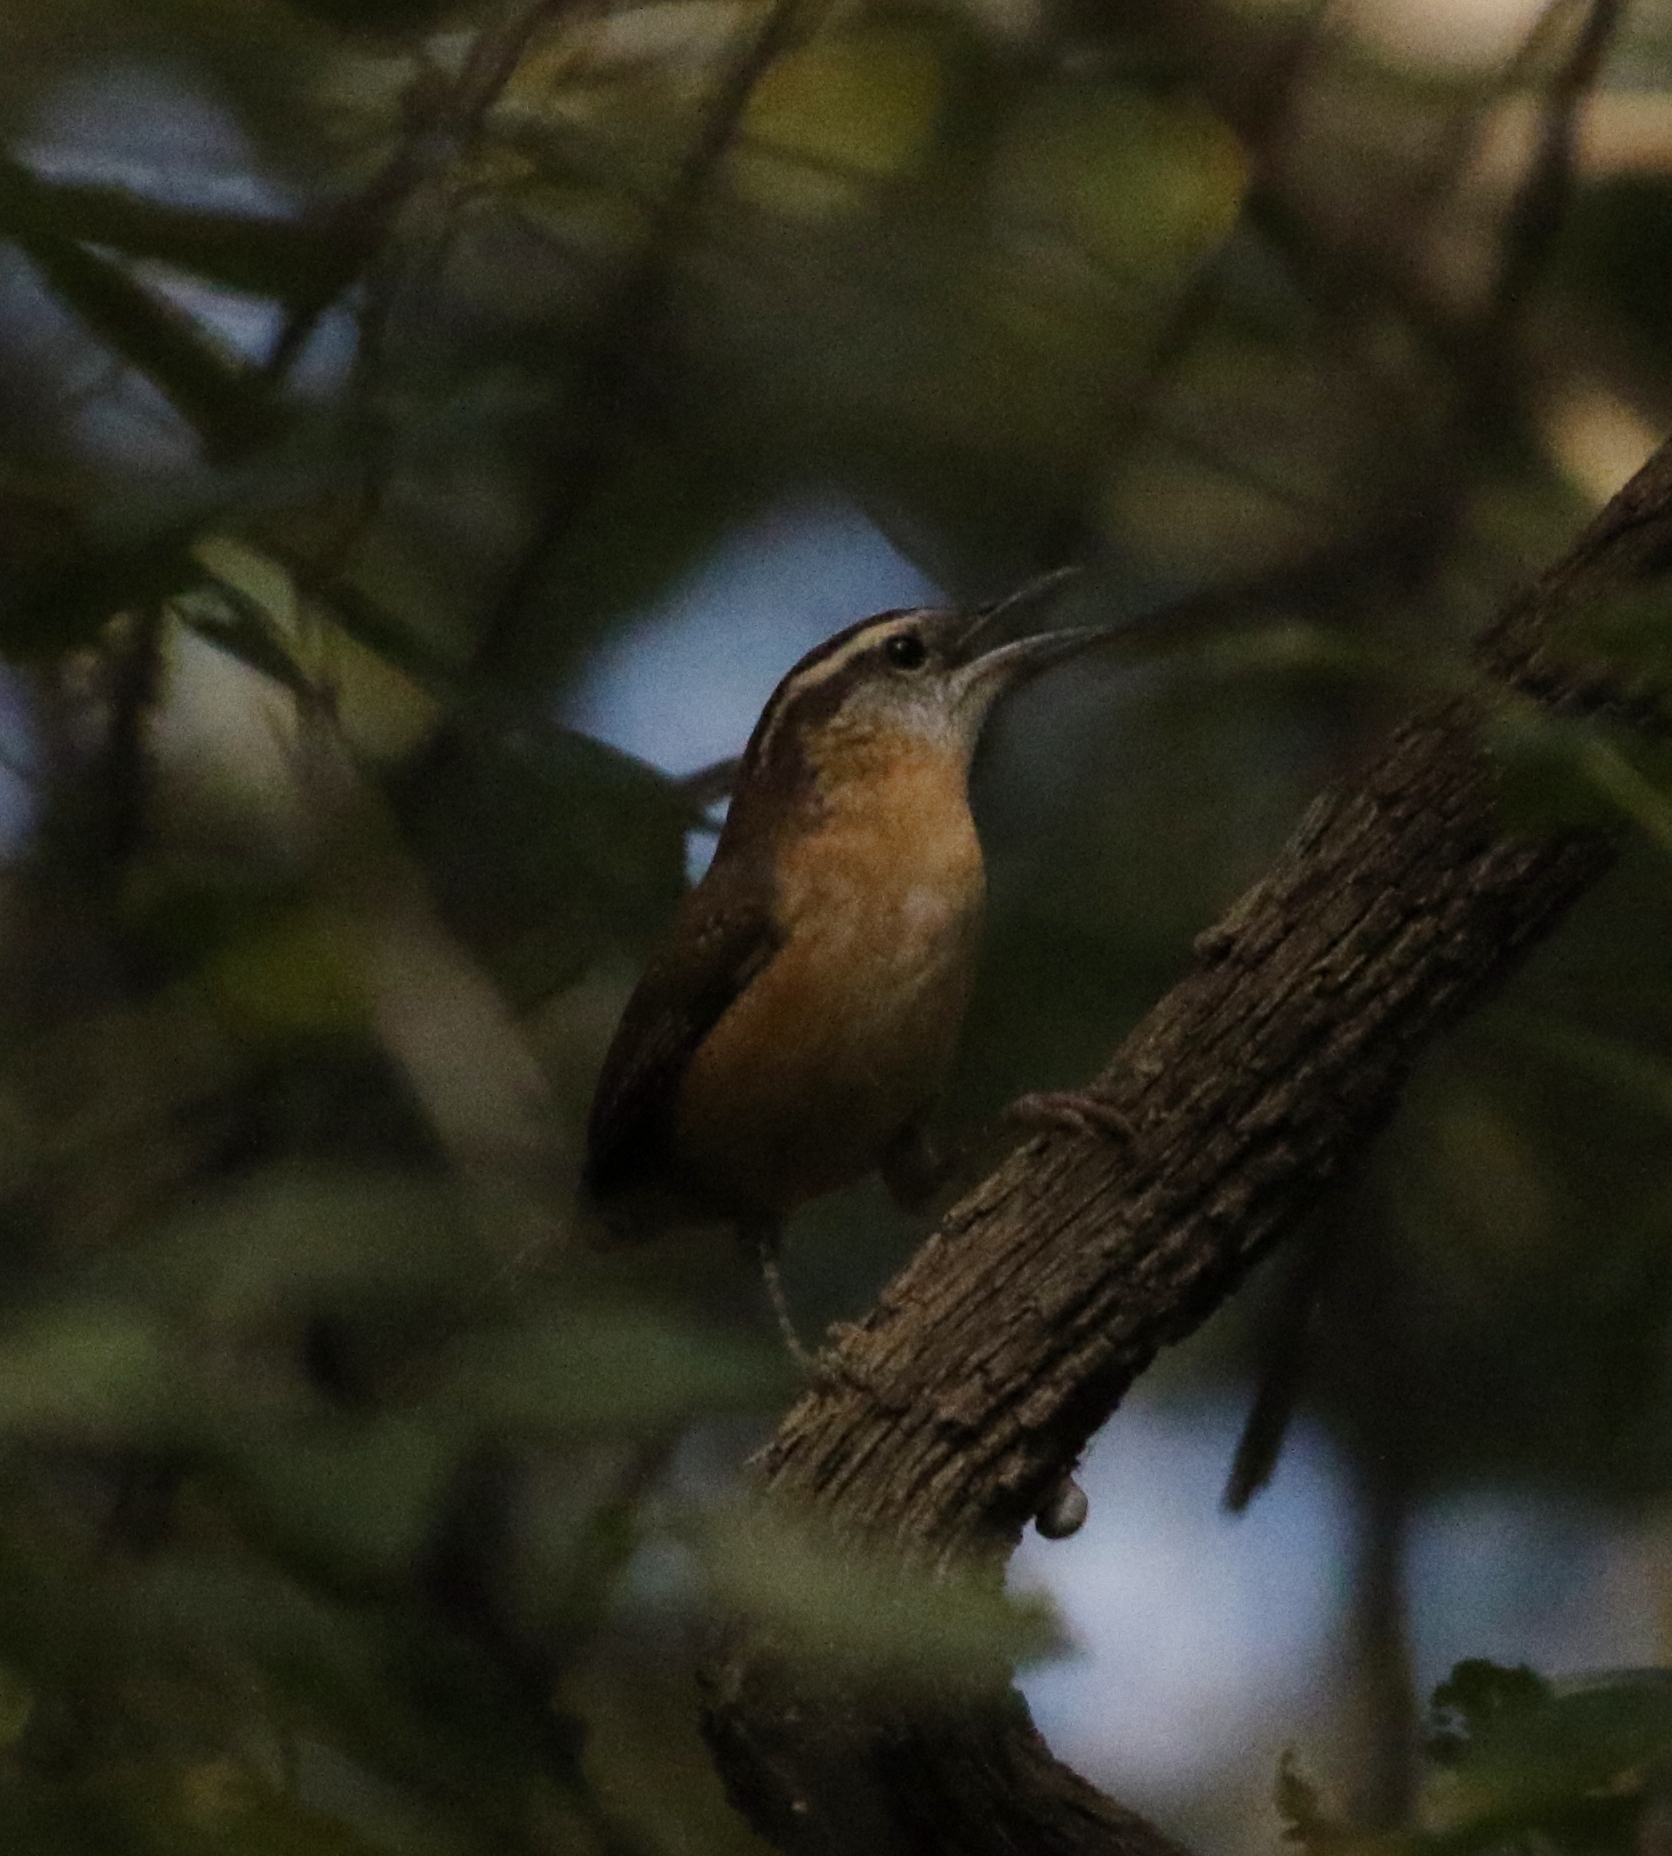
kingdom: Animalia
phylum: Chordata
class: Aves
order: Passeriformes
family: Troglodytidae
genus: Thryothorus
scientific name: Thryothorus ludovicianus
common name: Carolina wren
